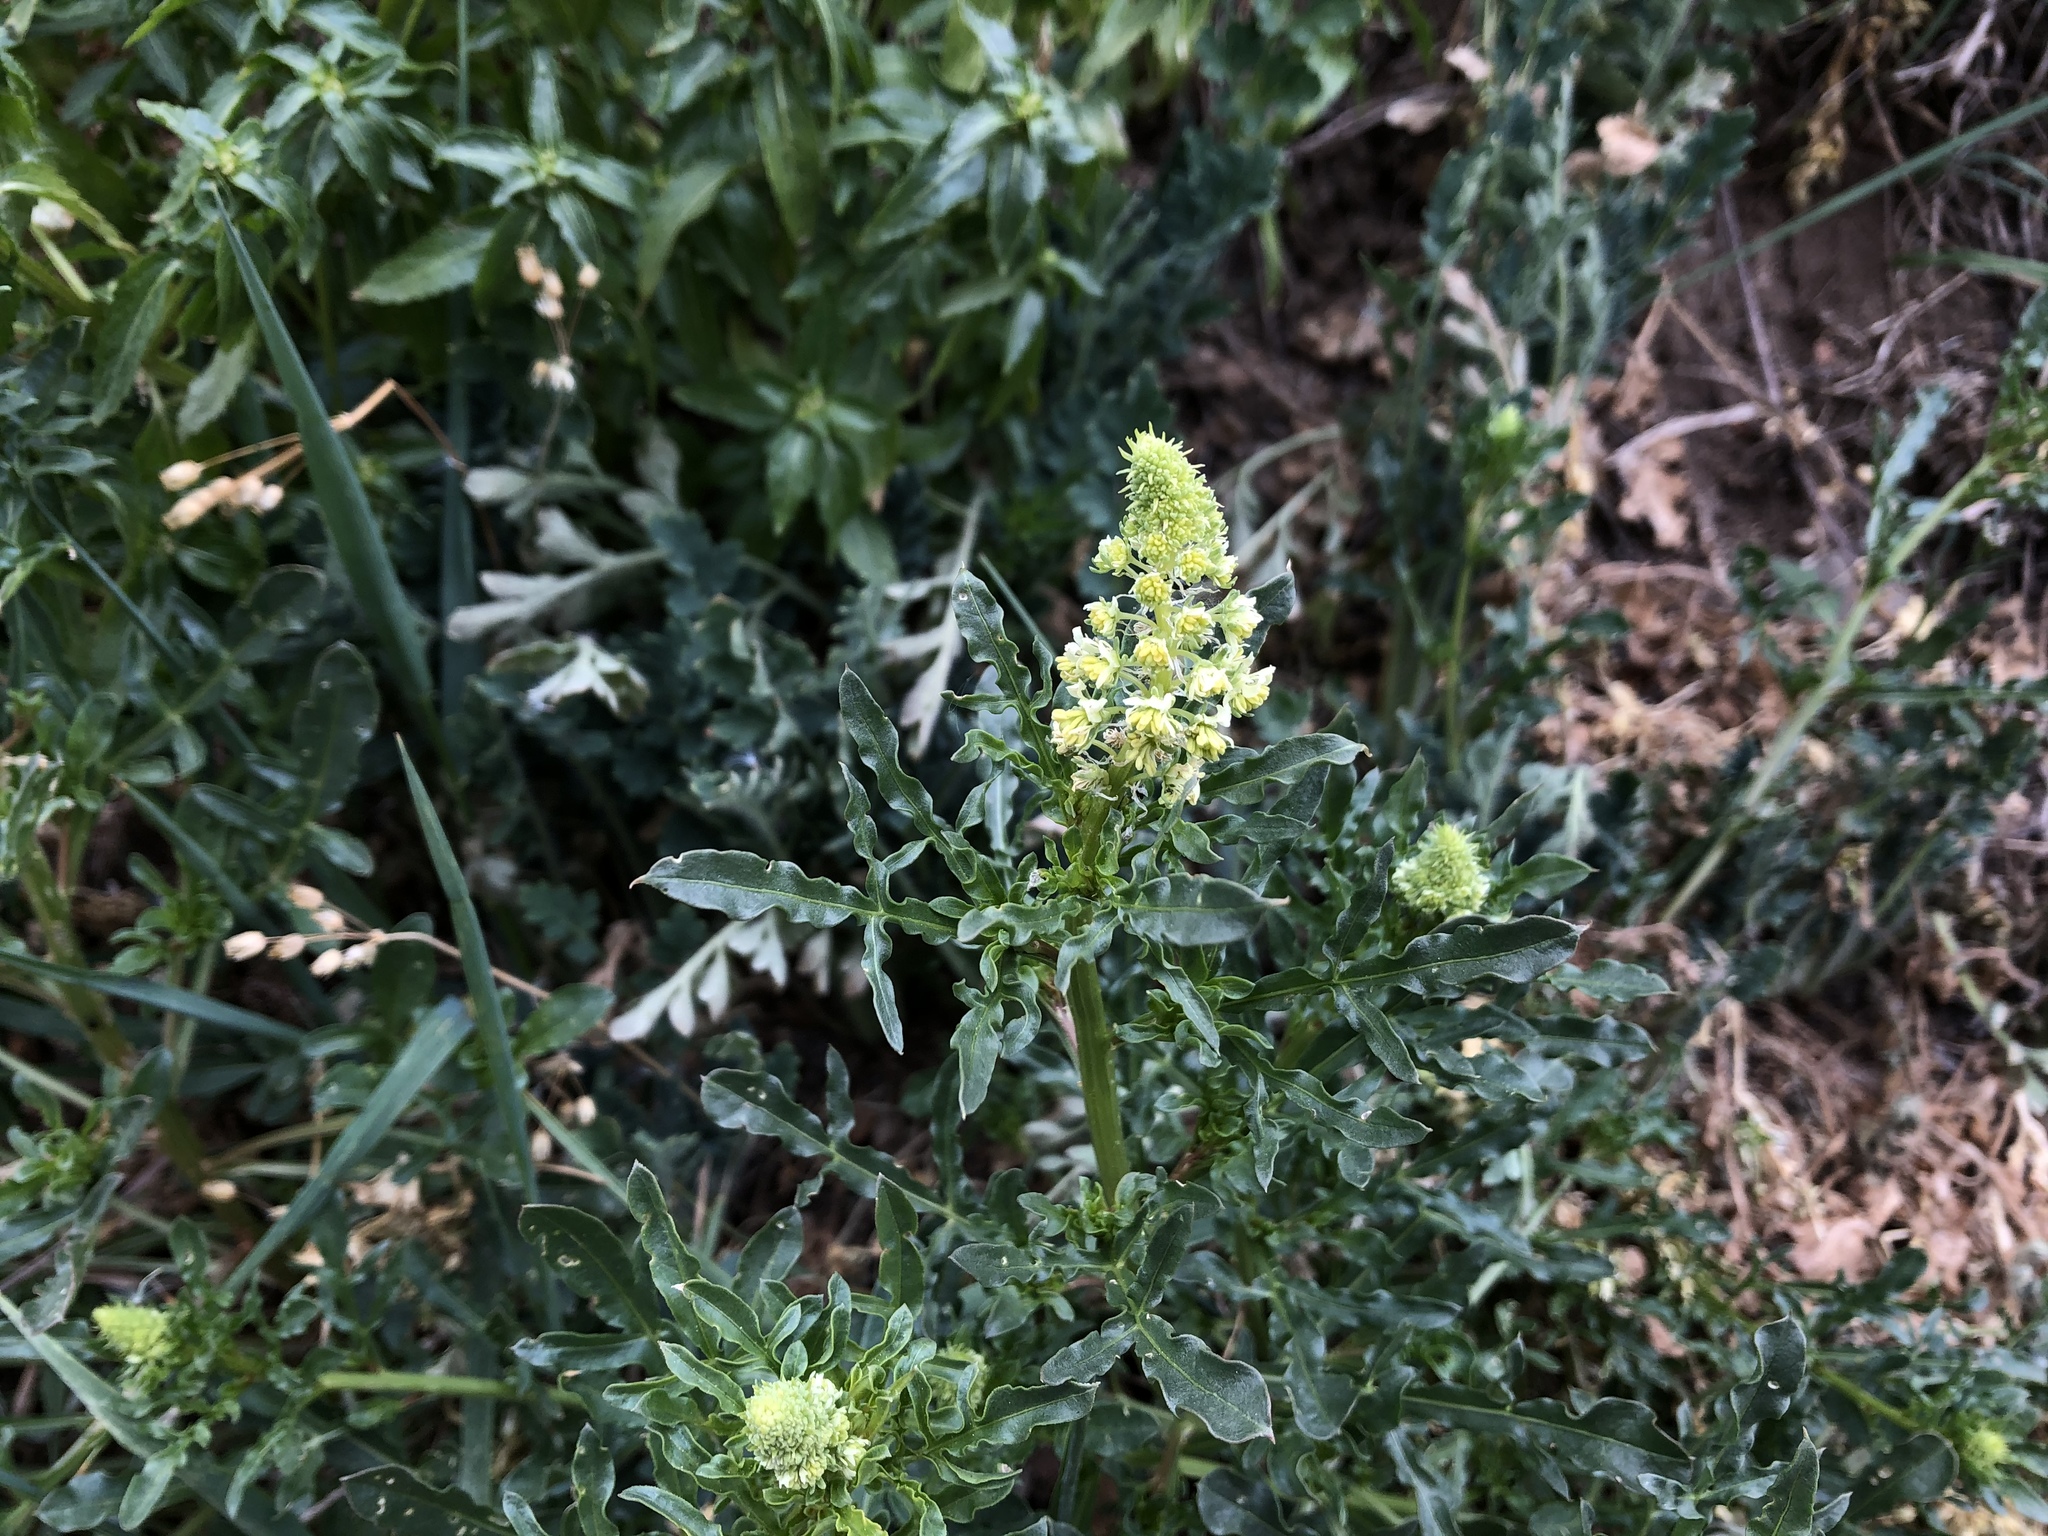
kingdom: Plantae
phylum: Tracheophyta
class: Magnoliopsida
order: Brassicales
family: Resedaceae
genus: Reseda
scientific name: Reseda lutea
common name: Wild mignonette
